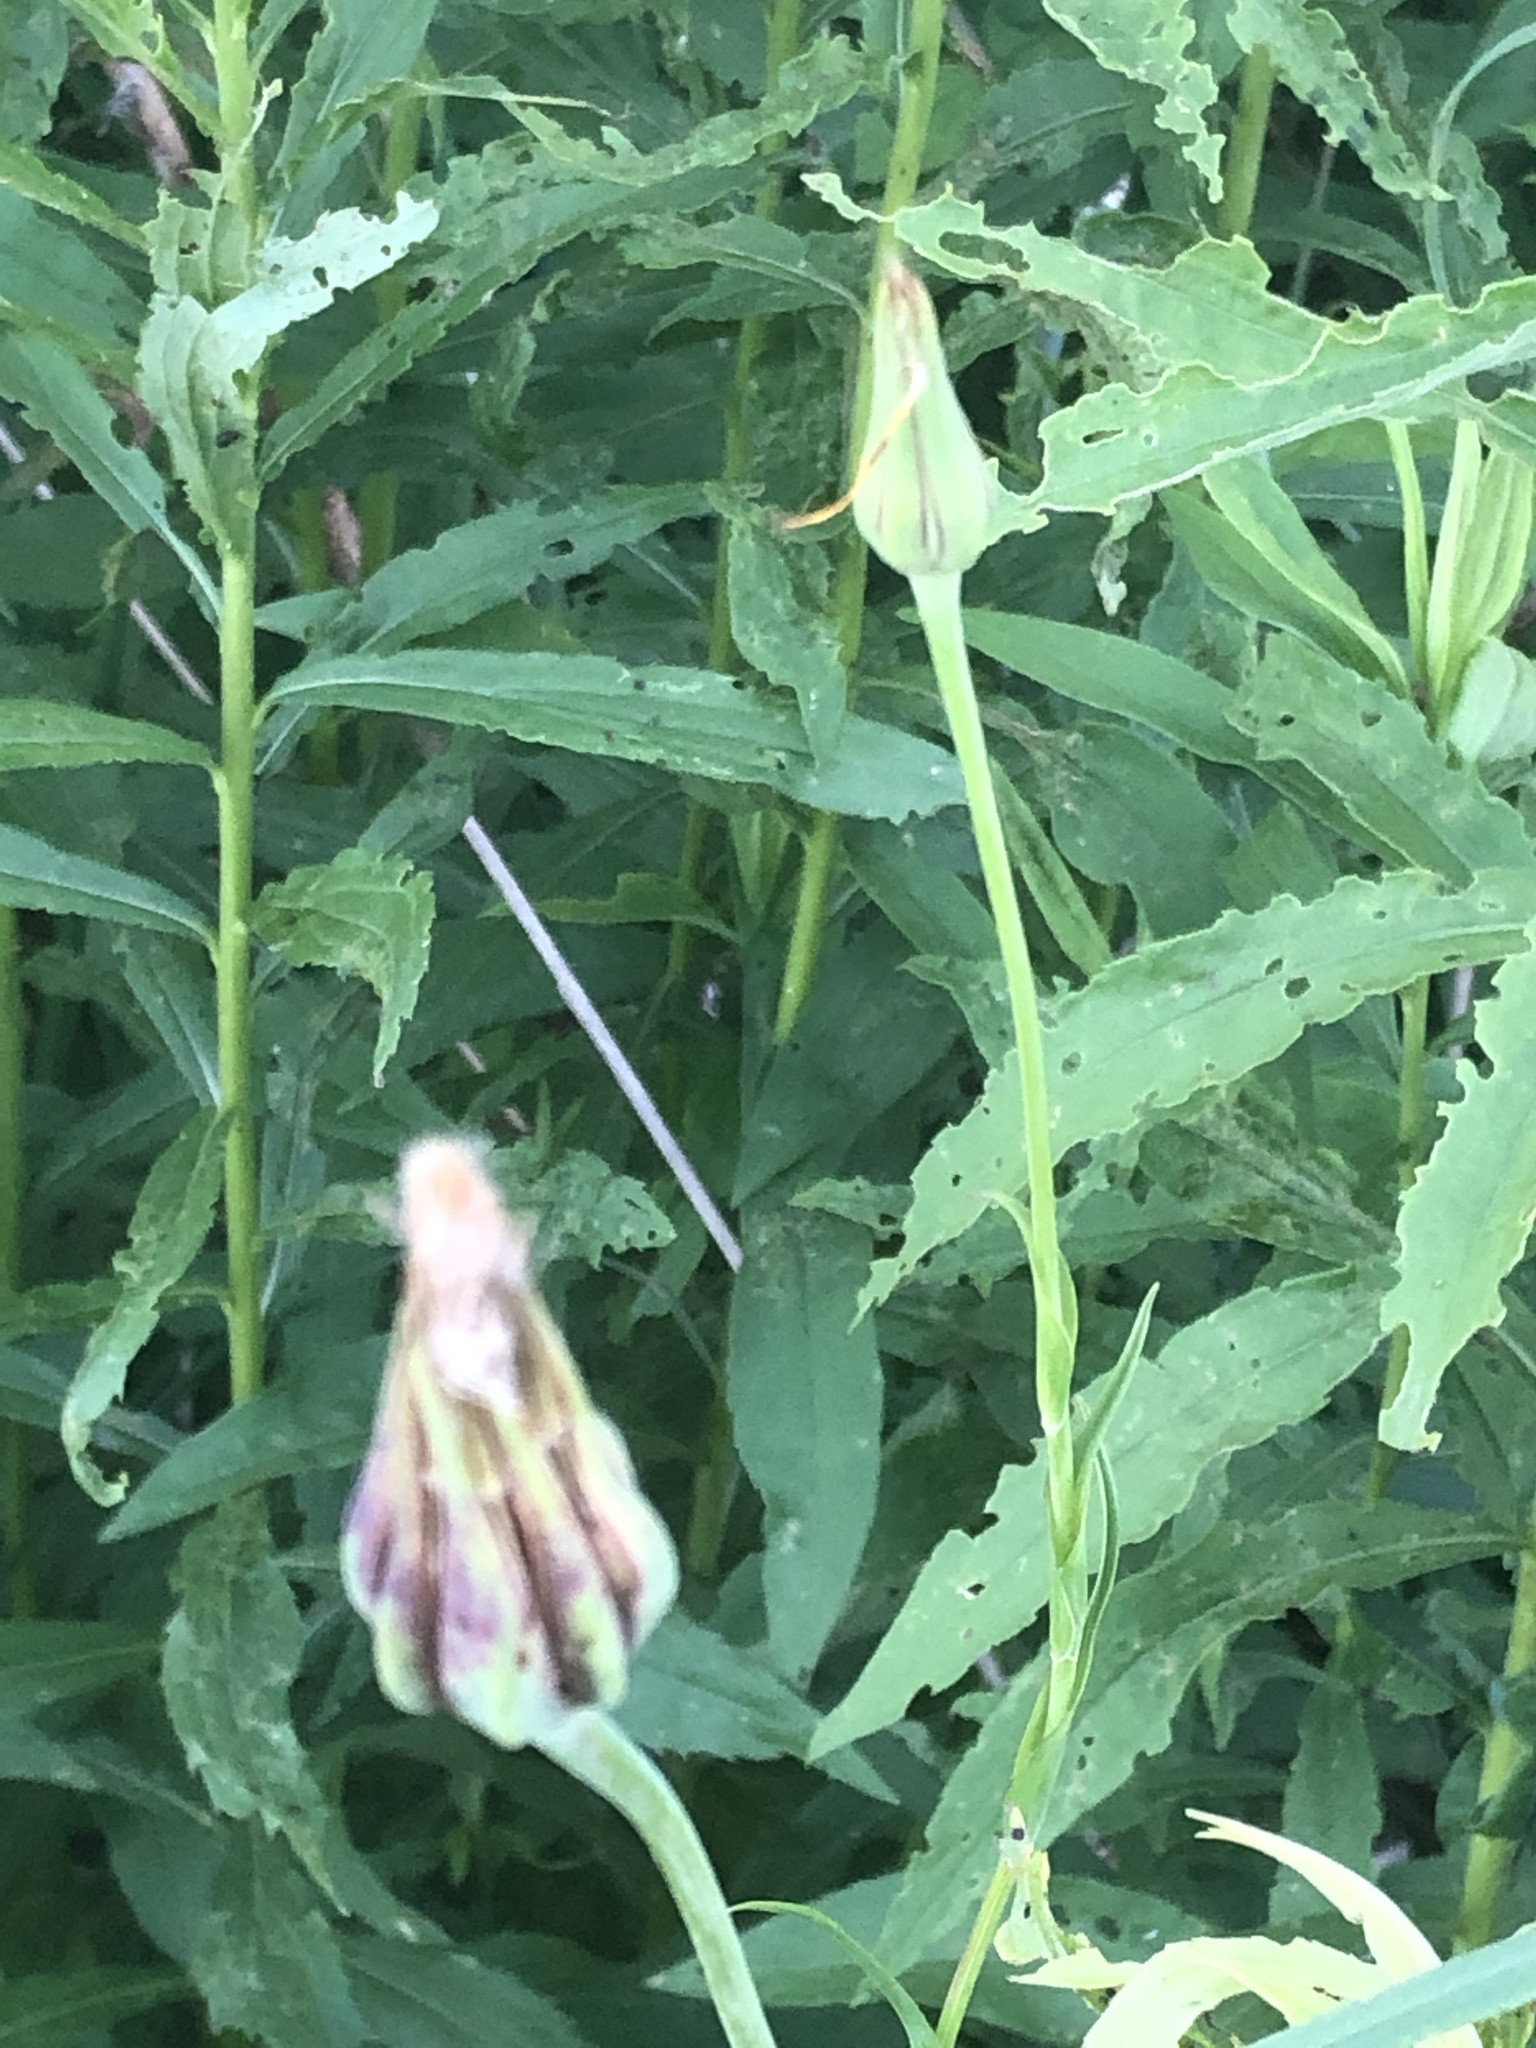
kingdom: Plantae
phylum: Tracheophyta
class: Magnoliopsida
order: Asterales
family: Asteraceae
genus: Tragopogon
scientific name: Tragopogon pratensis
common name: Goat's-beard
